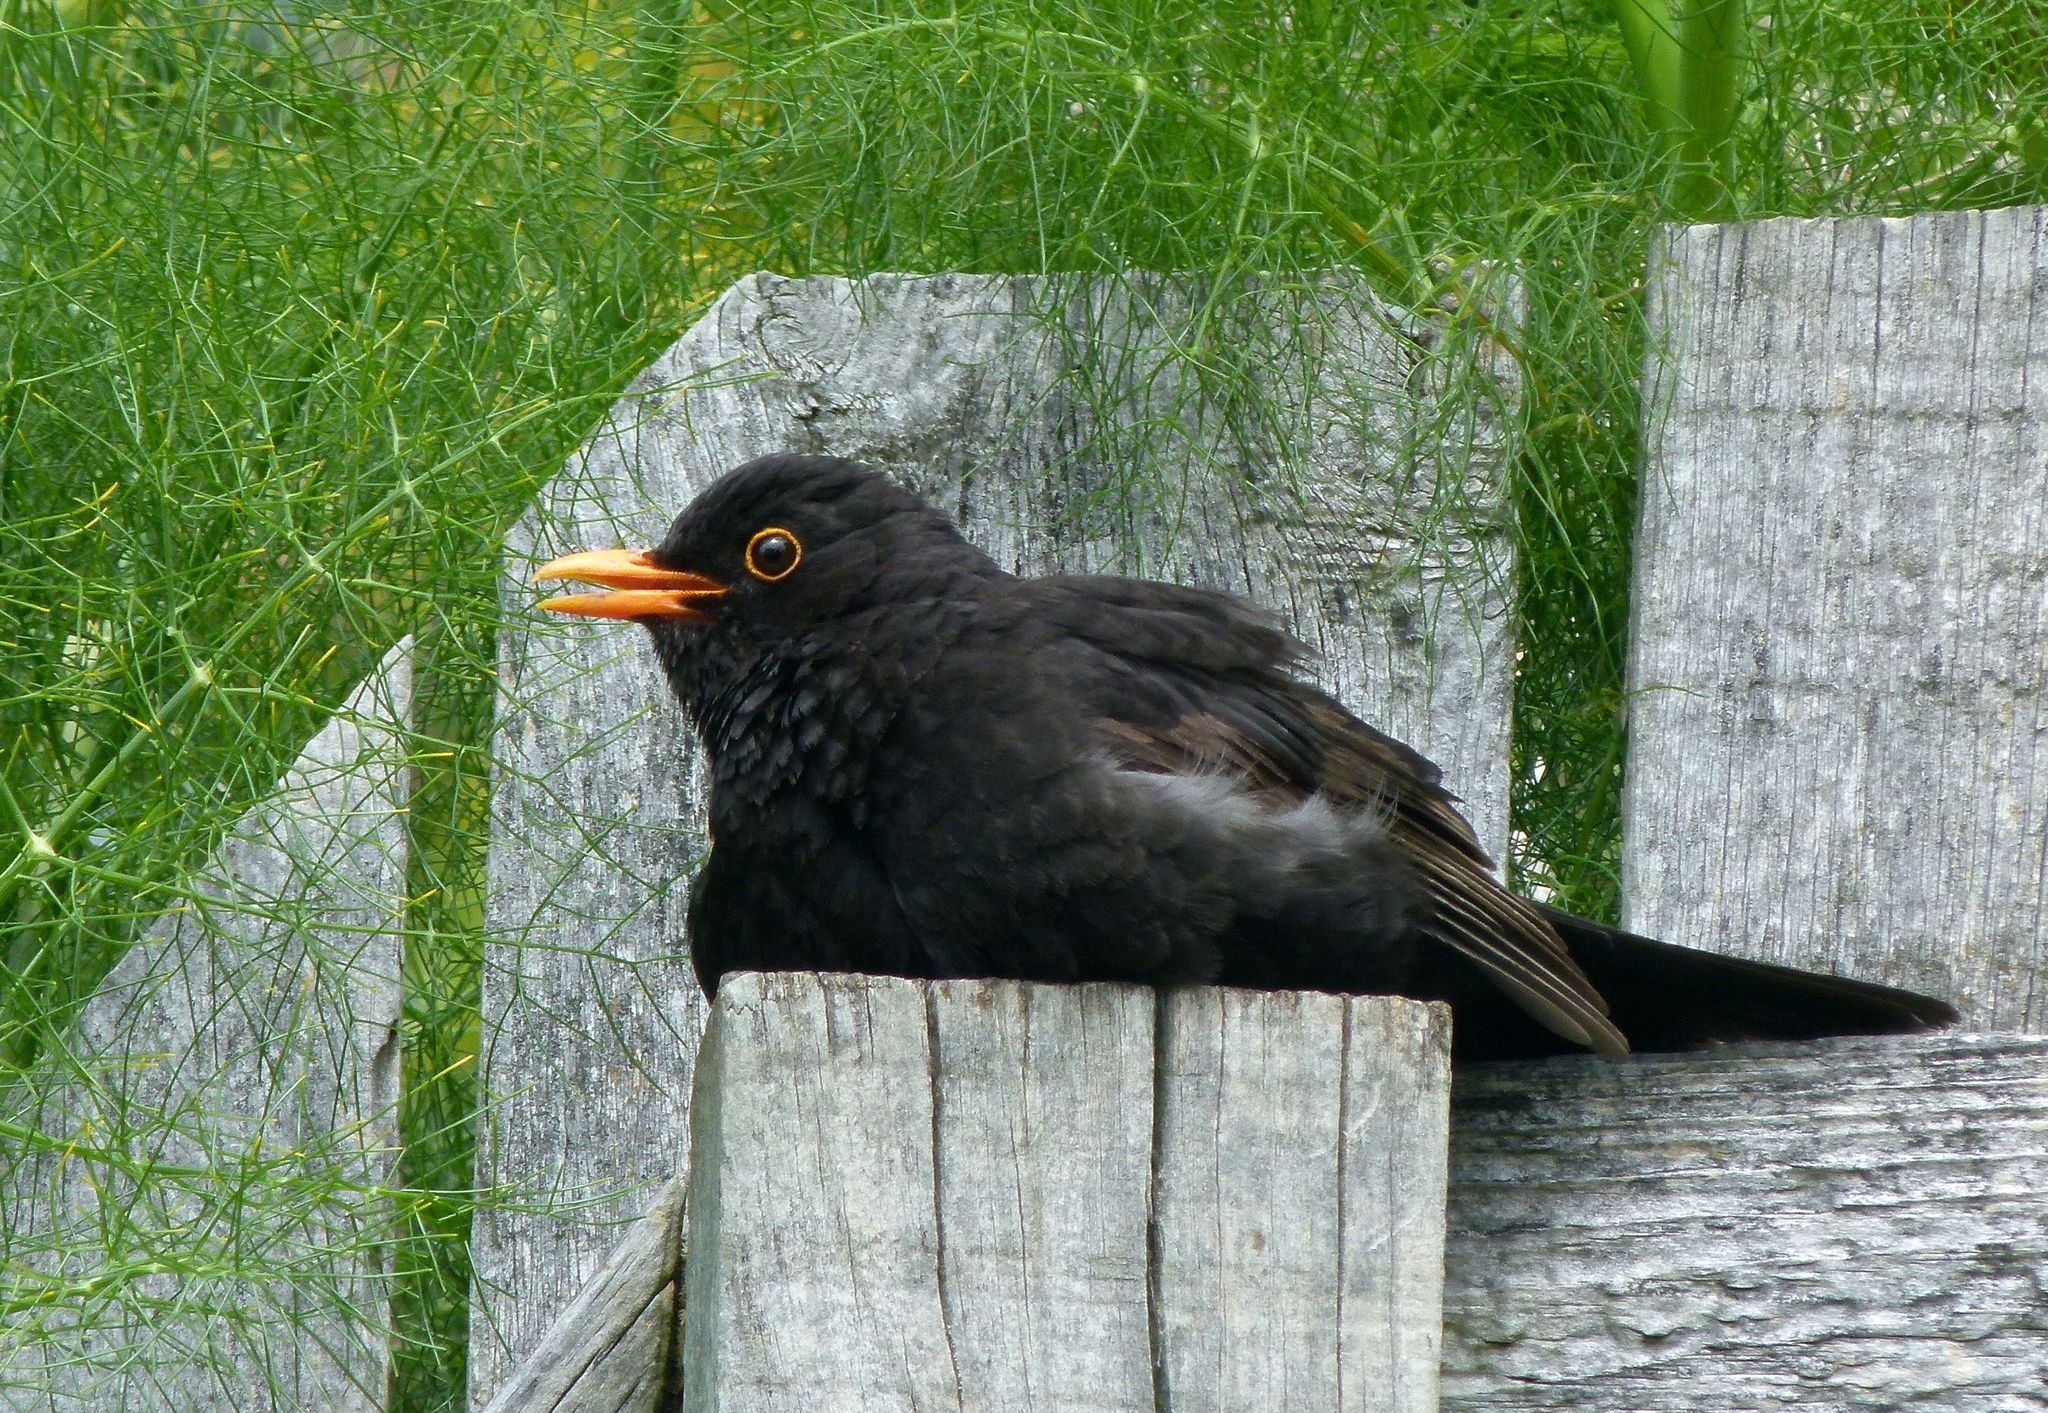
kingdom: Animalia
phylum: Chordata
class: Aves
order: Passeriformes
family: Turdidae
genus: Turdus
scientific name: Turdus merula
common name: Common blackbird
